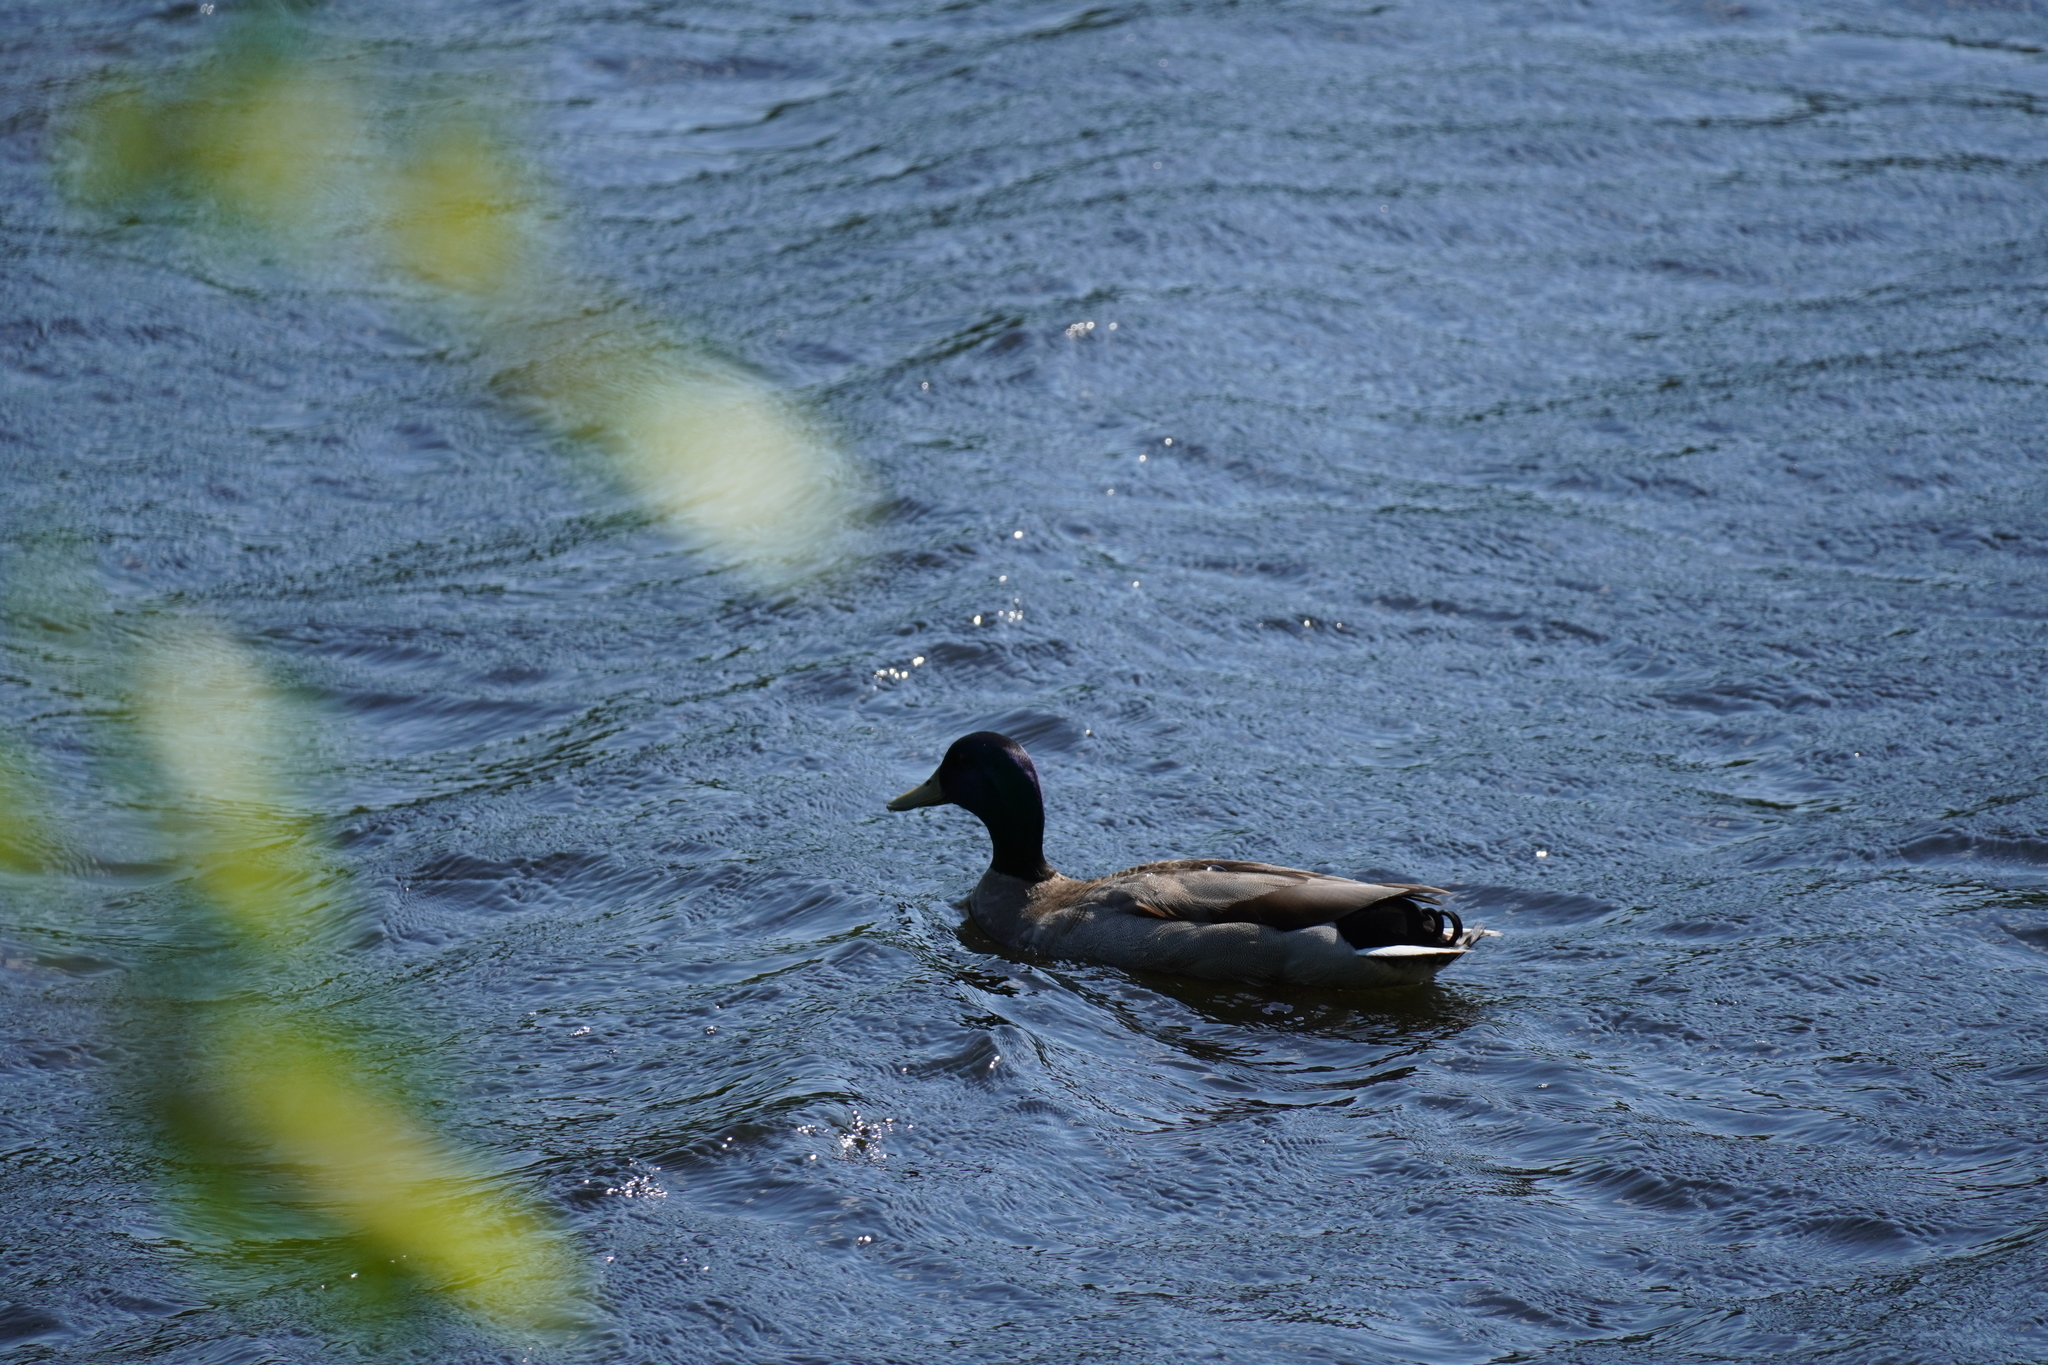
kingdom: Animalia
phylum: Chordata
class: Aves
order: Anseriformes
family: Anatidae
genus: Anas
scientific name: Anas platyrhynchos
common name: Mallard
